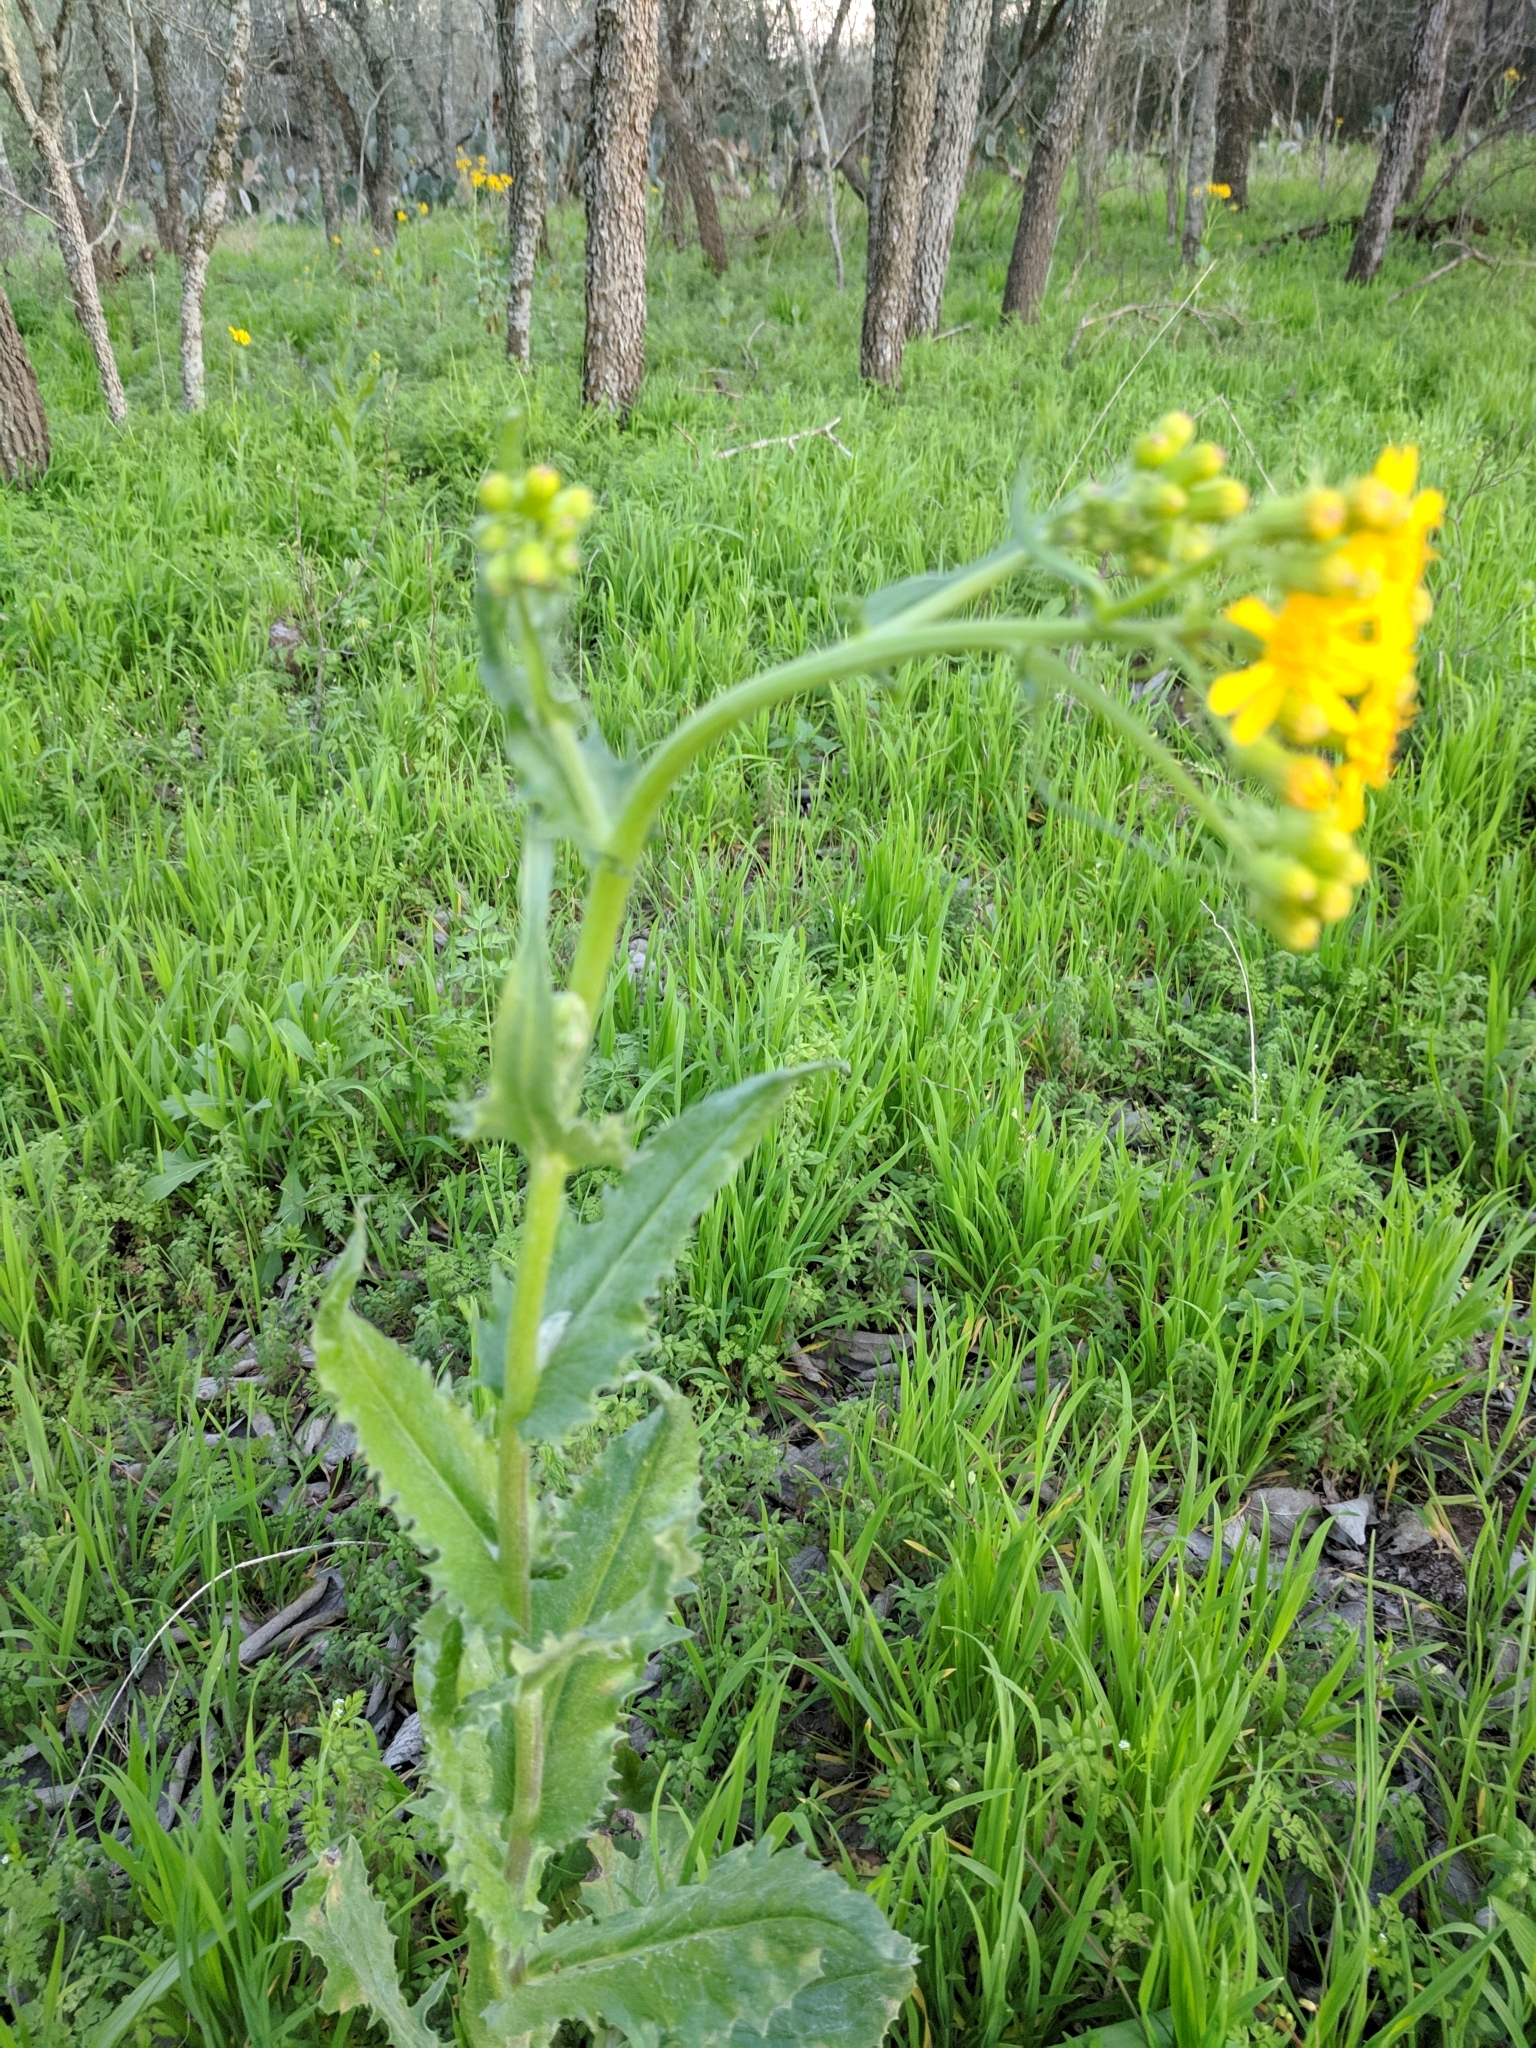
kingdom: Plantae
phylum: Tracheophyta
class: Magnoliopsida
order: Asterales
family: Asteraceae
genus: Senecio
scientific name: Senecio ampullaceus
